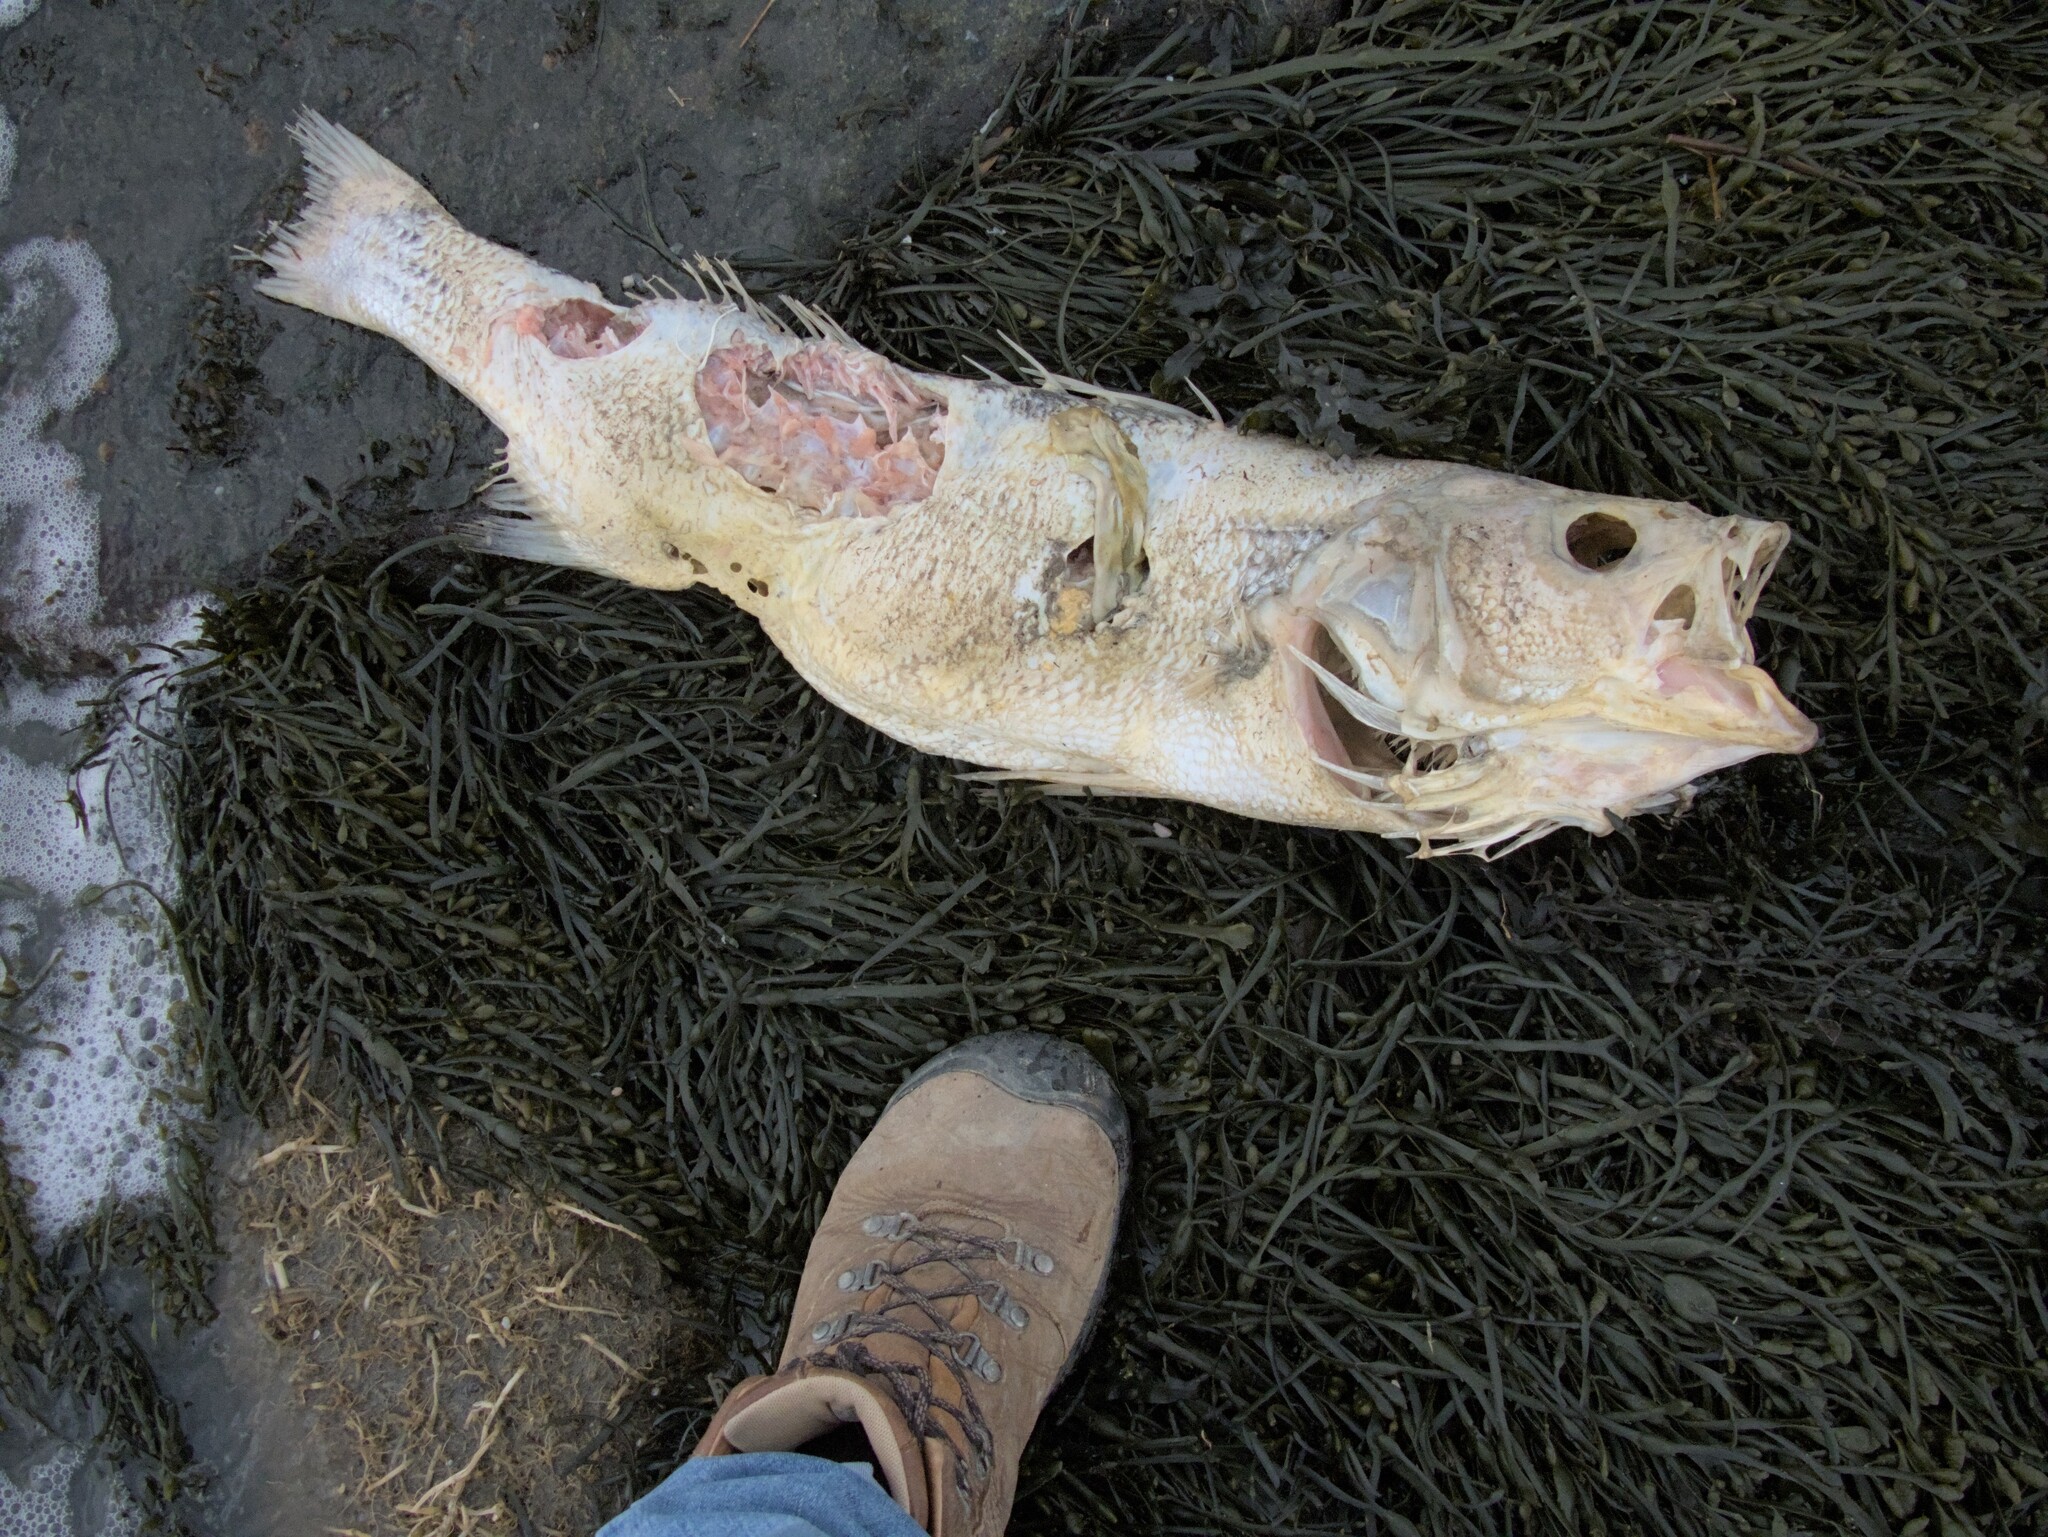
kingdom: Animalia
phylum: Chordata
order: Perciformes
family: Moronidae
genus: Morone
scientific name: Morone saxatilis
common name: Striped bass
